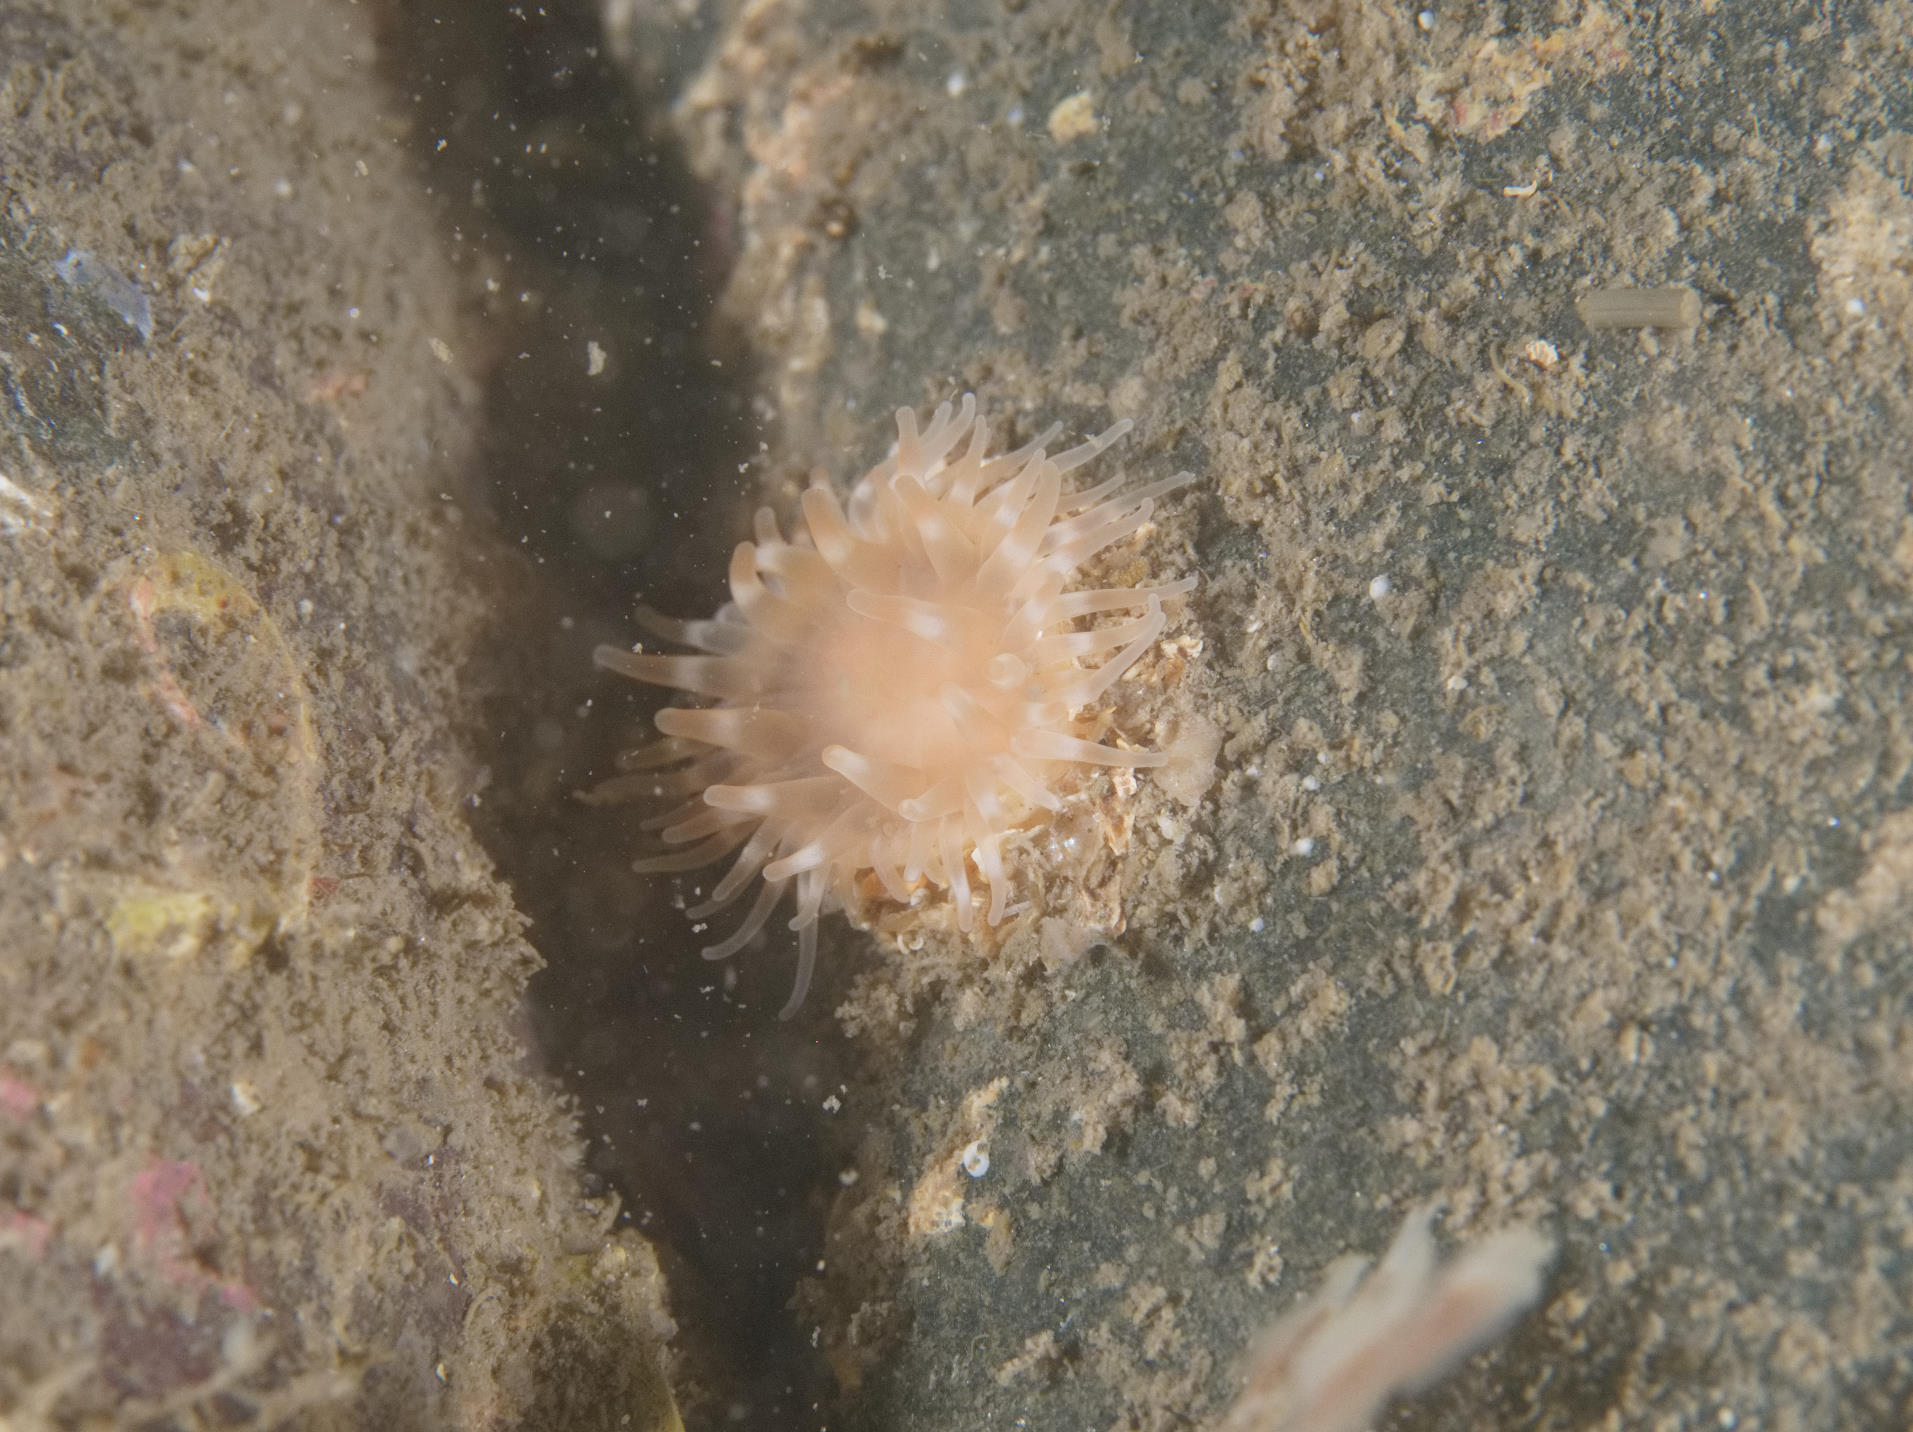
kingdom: Animalia
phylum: Cnidaria
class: Anthozoa
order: Actiniaria
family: Sagartiidae
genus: Cylista
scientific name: Cylista elegans
